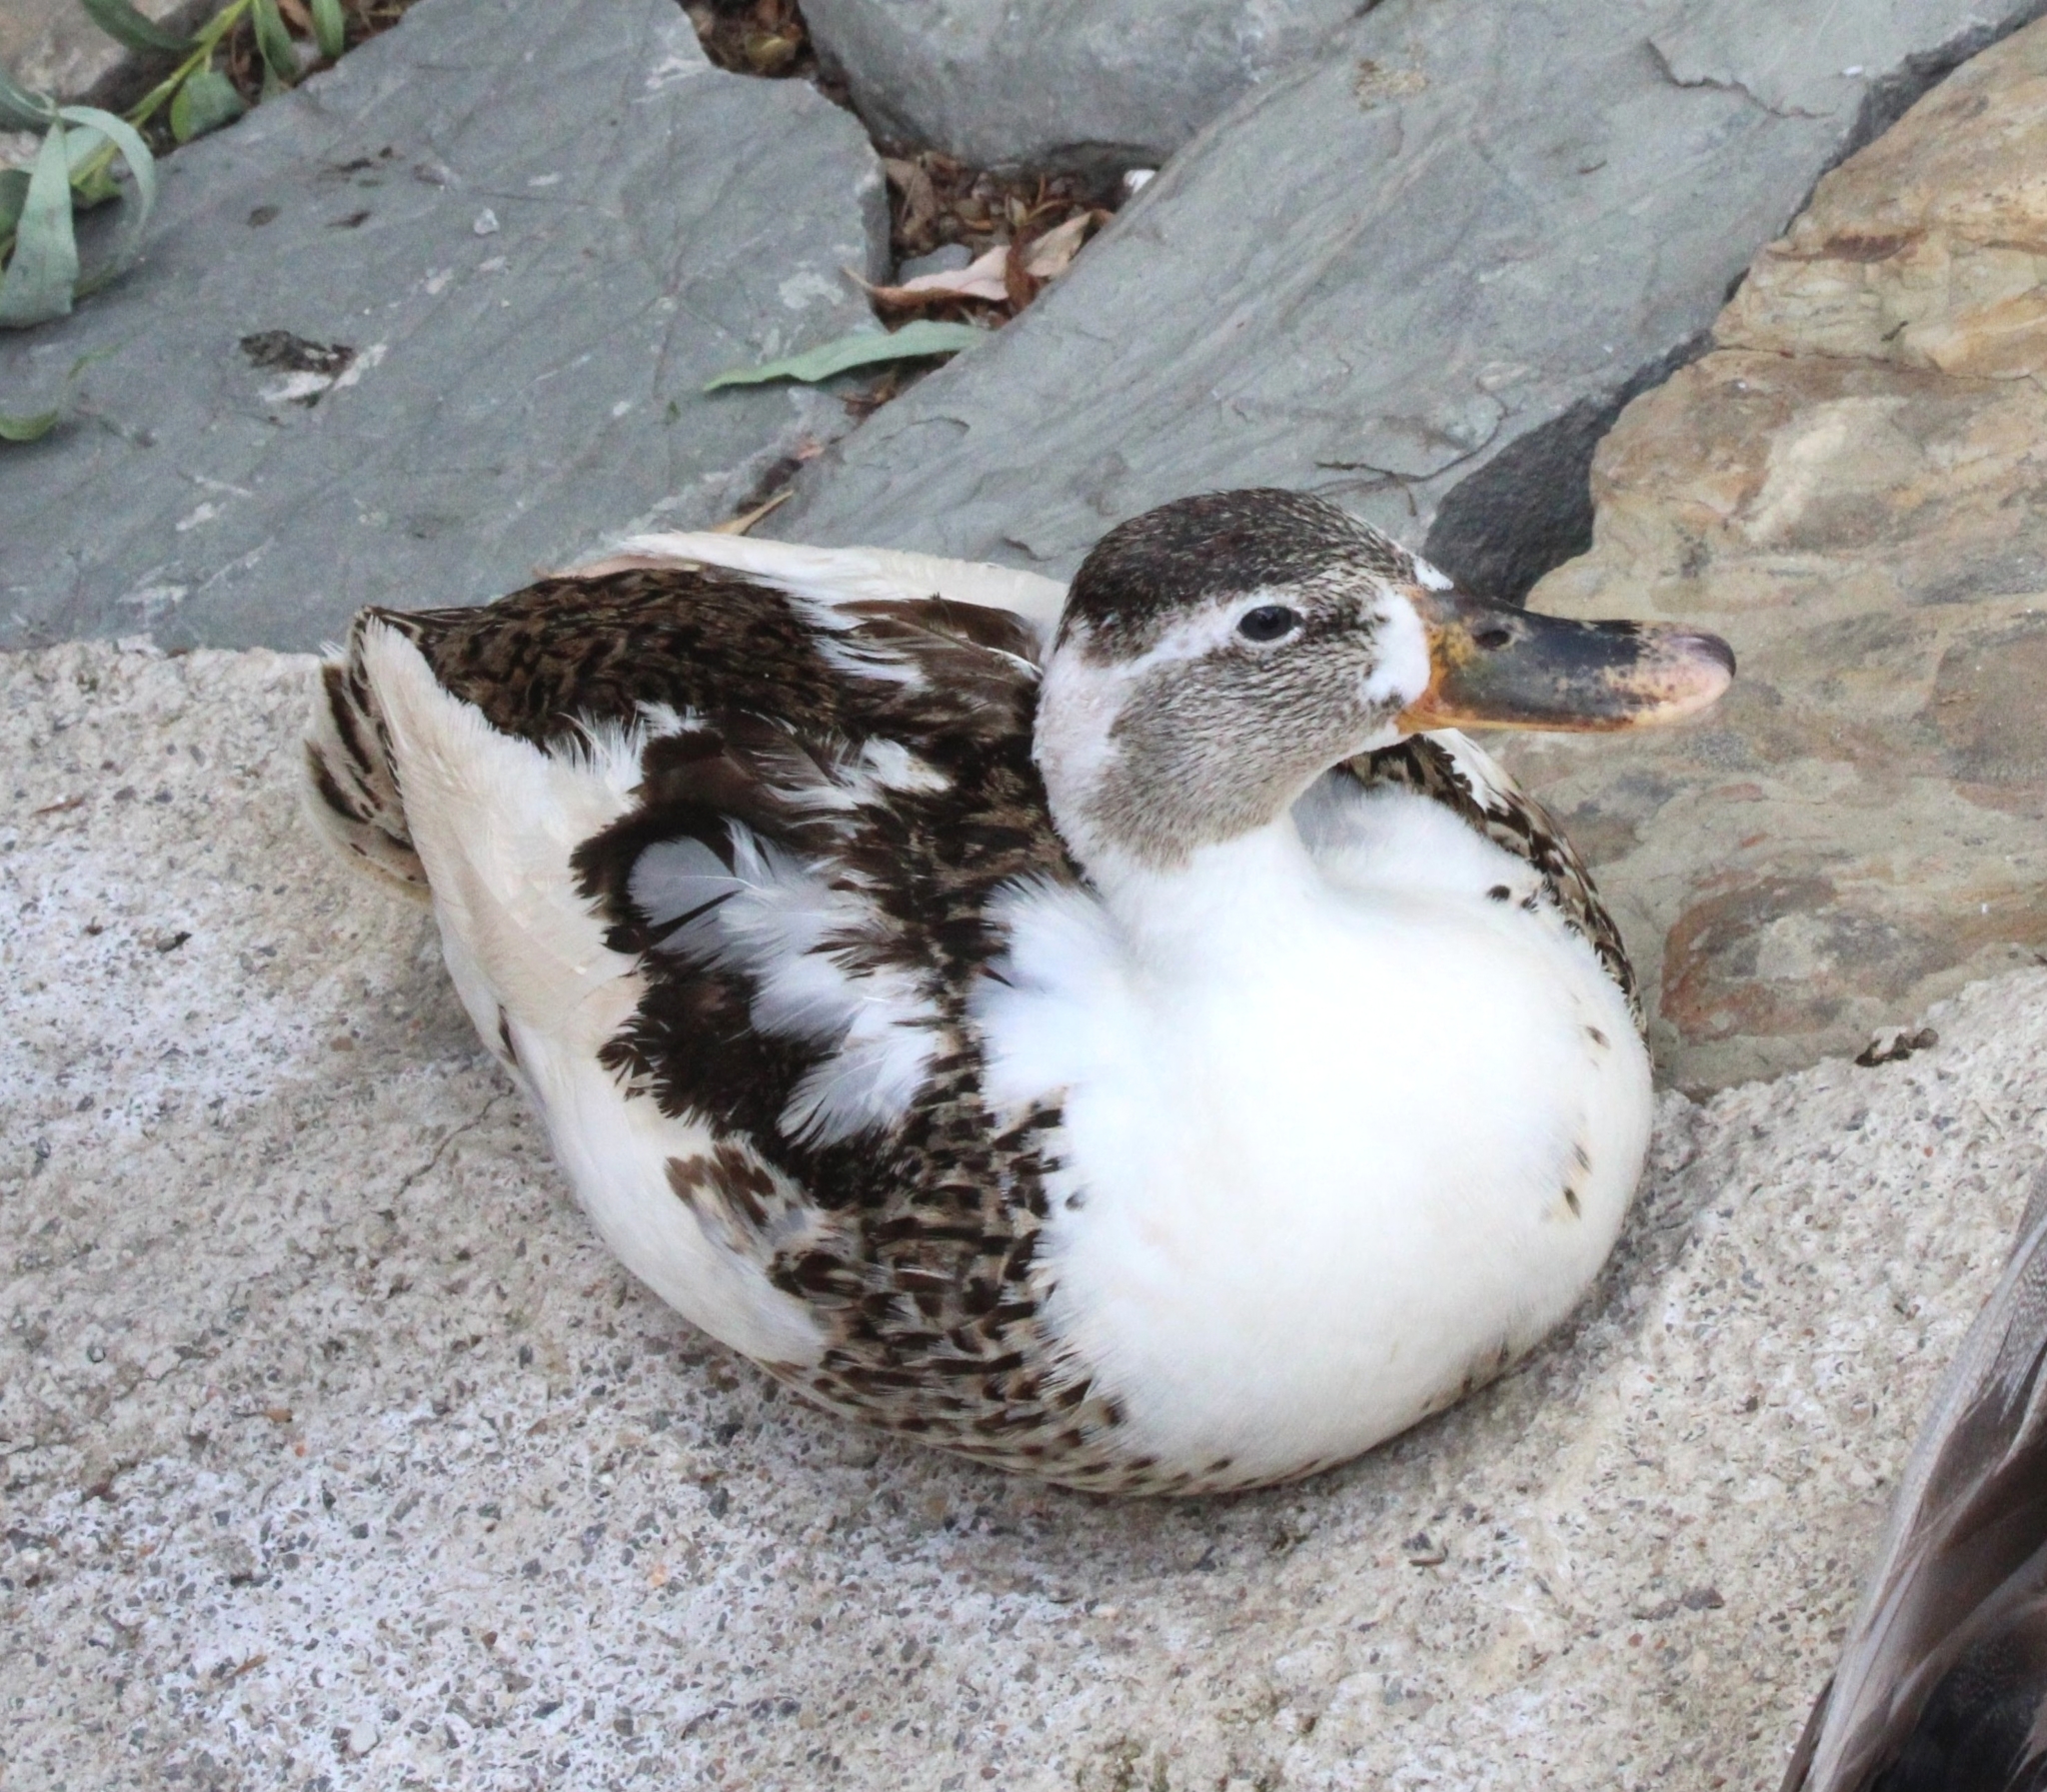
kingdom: Animalia
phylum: Chordata
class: Aves
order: Anseriformes
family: Anatidae
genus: Anas
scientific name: Anas platyrhynchos
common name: Mallard
